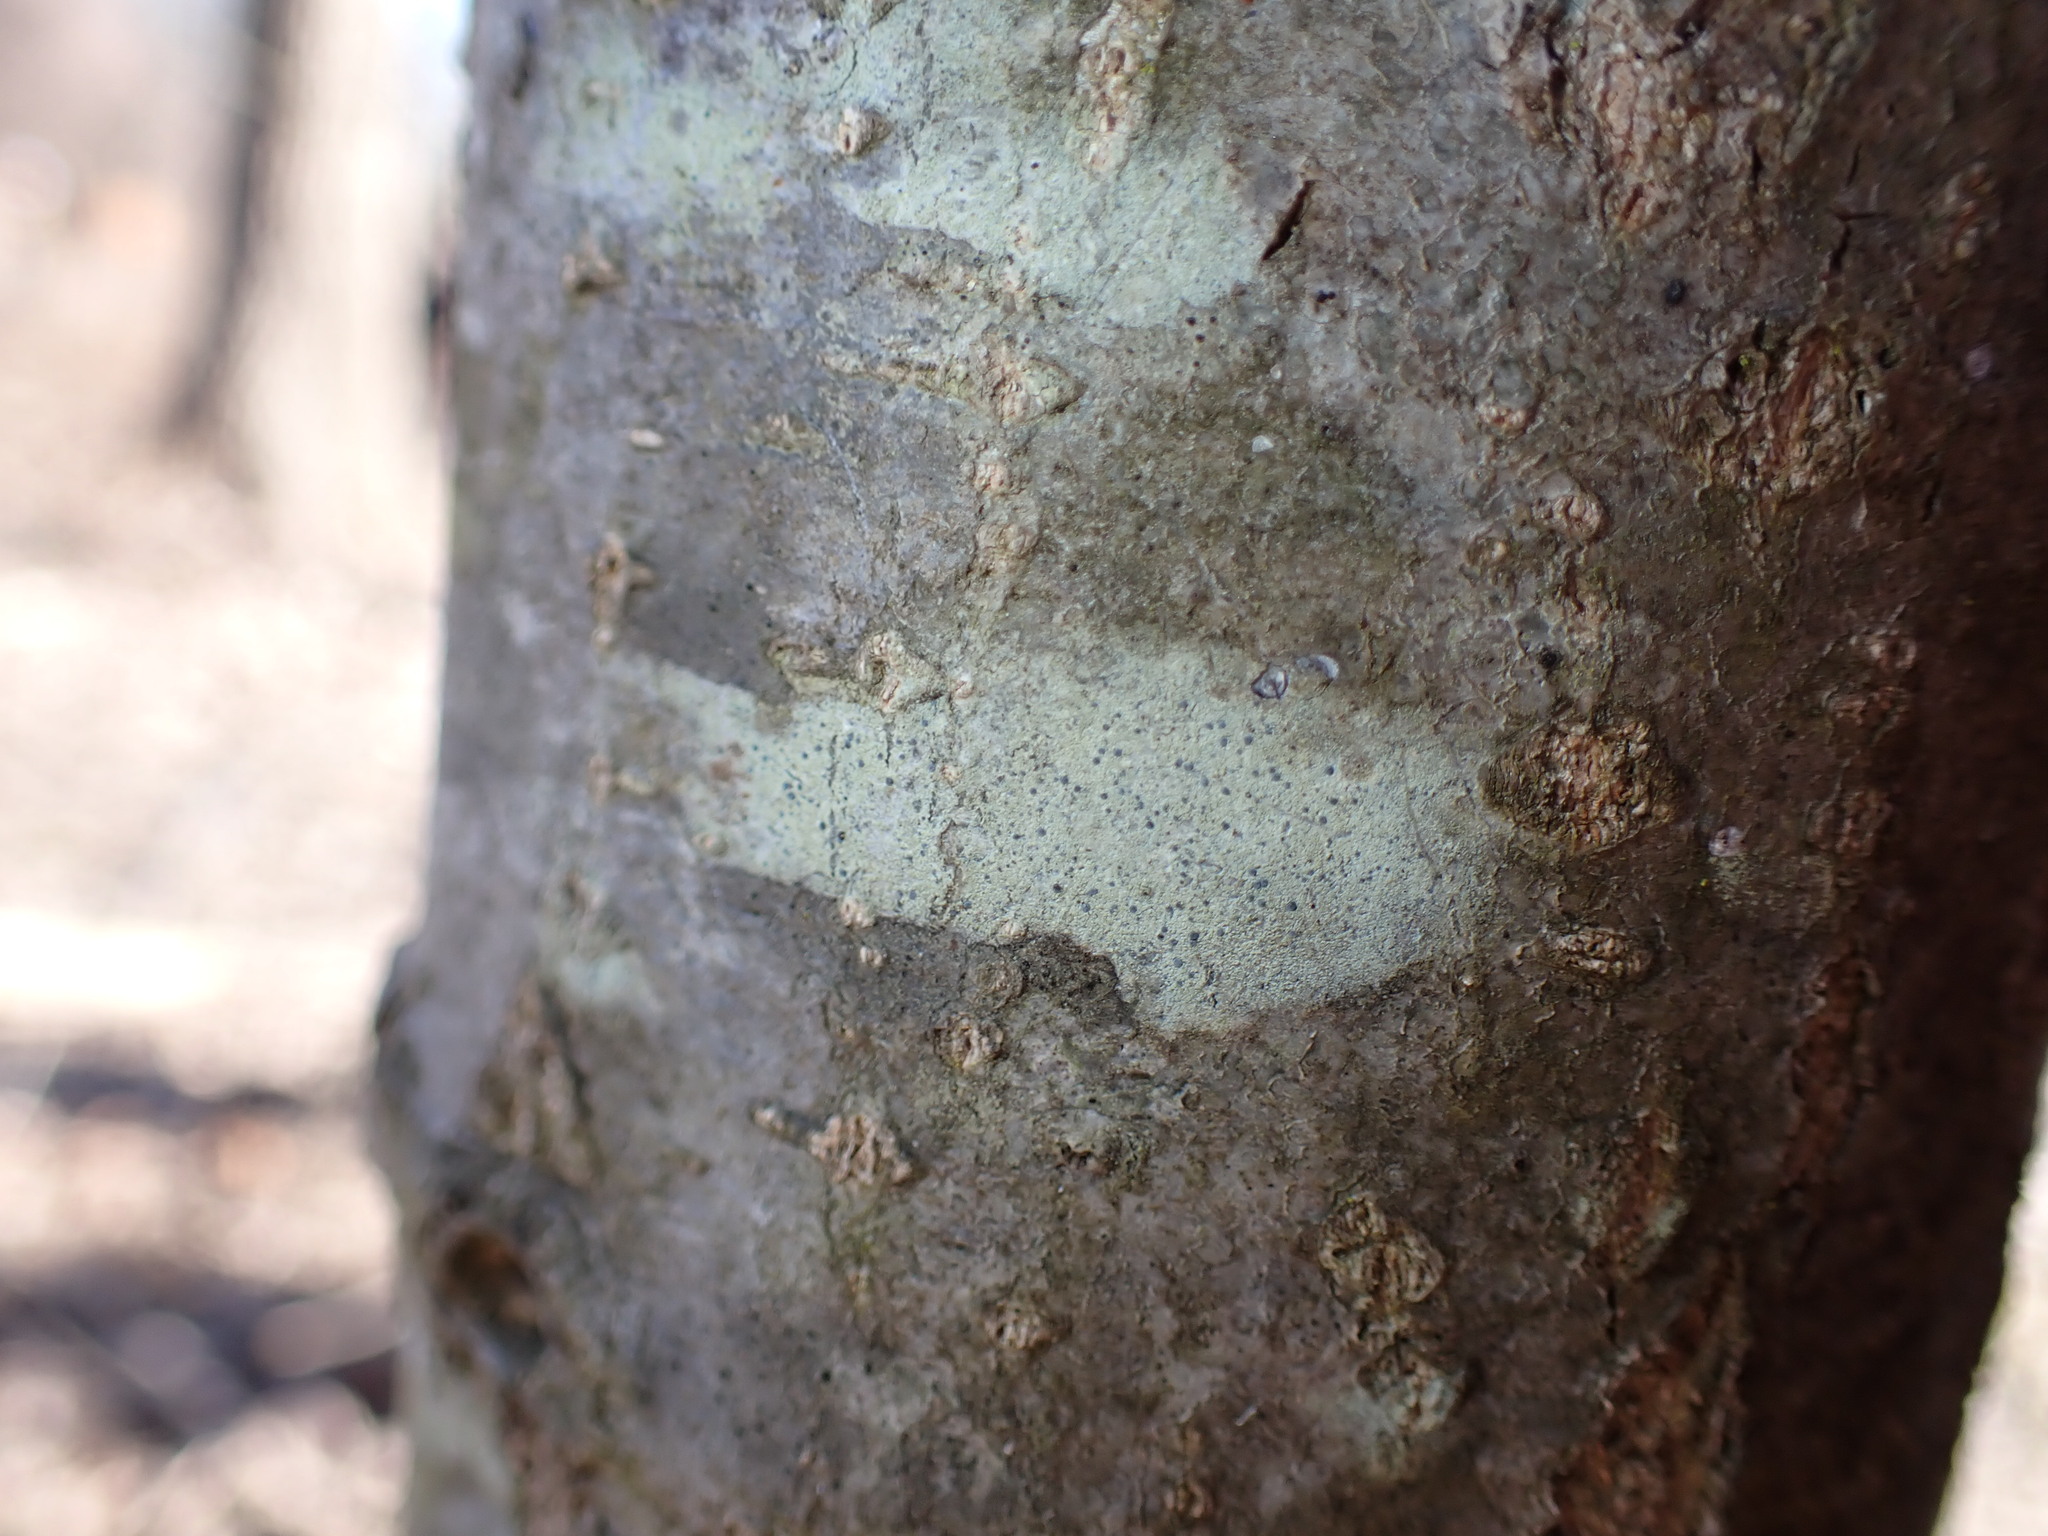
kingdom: Fungi
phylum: Ascomycota
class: Arthoniomycetes
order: Arthoniales
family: Chrysotrichaceae
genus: Chrysothrix
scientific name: Chrysothrix caesia
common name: Frosted comma lichen
